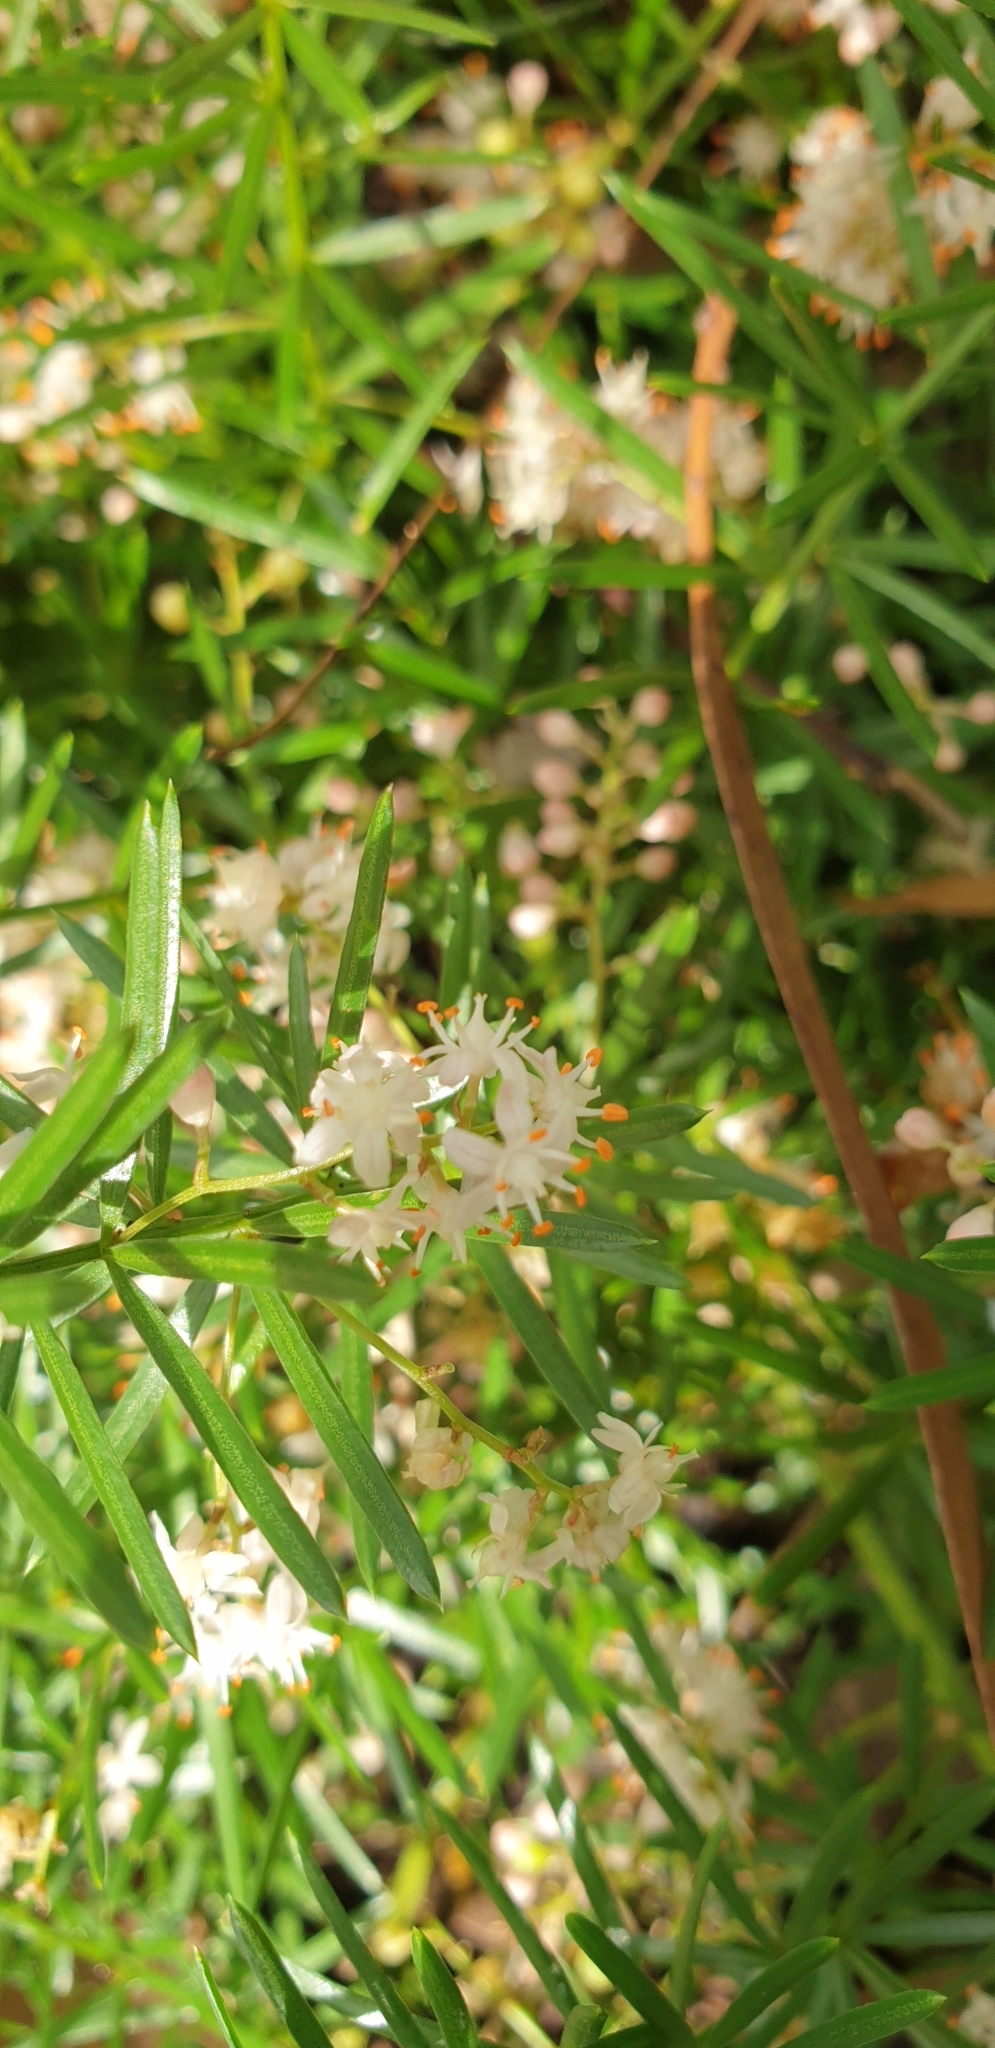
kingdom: Plantae
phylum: Tracheophyta
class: Liliopsida
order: Asparagales
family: Asparagaceae
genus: Asparagus
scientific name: Asparagus aethiopicus
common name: Sprenger's asparagus fern
